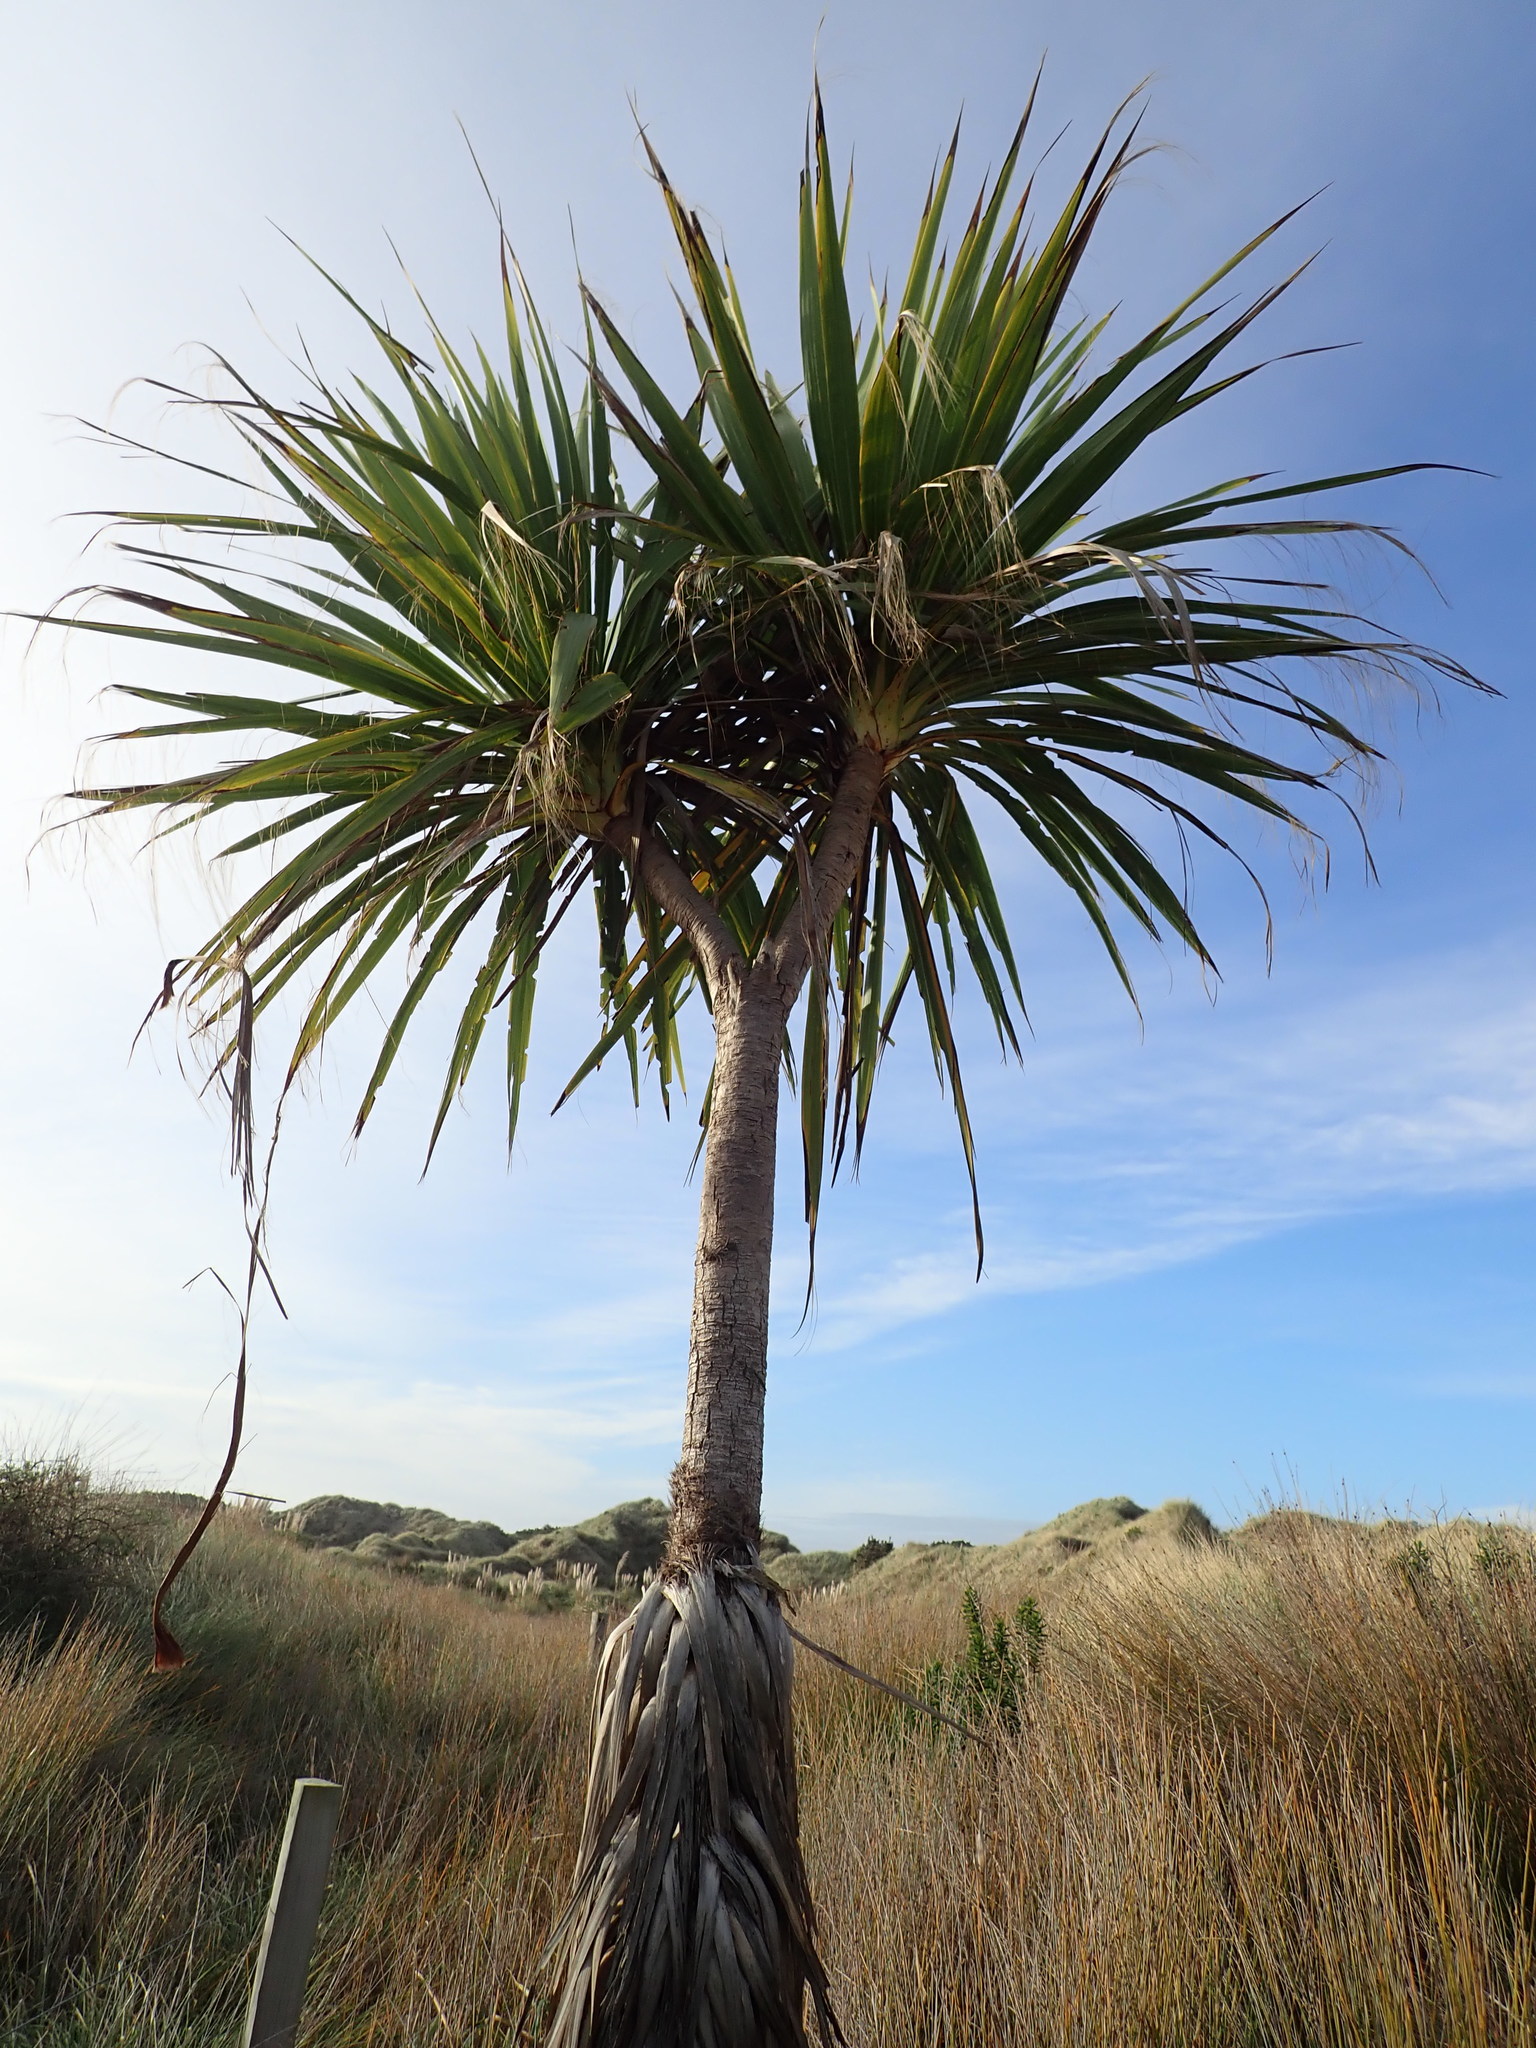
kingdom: Plantae
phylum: Tracheophyta
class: Liliopsida
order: Asparagales
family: Asparagaceae
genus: Cordyline
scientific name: Cordyline australis
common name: Cabbage-palm
